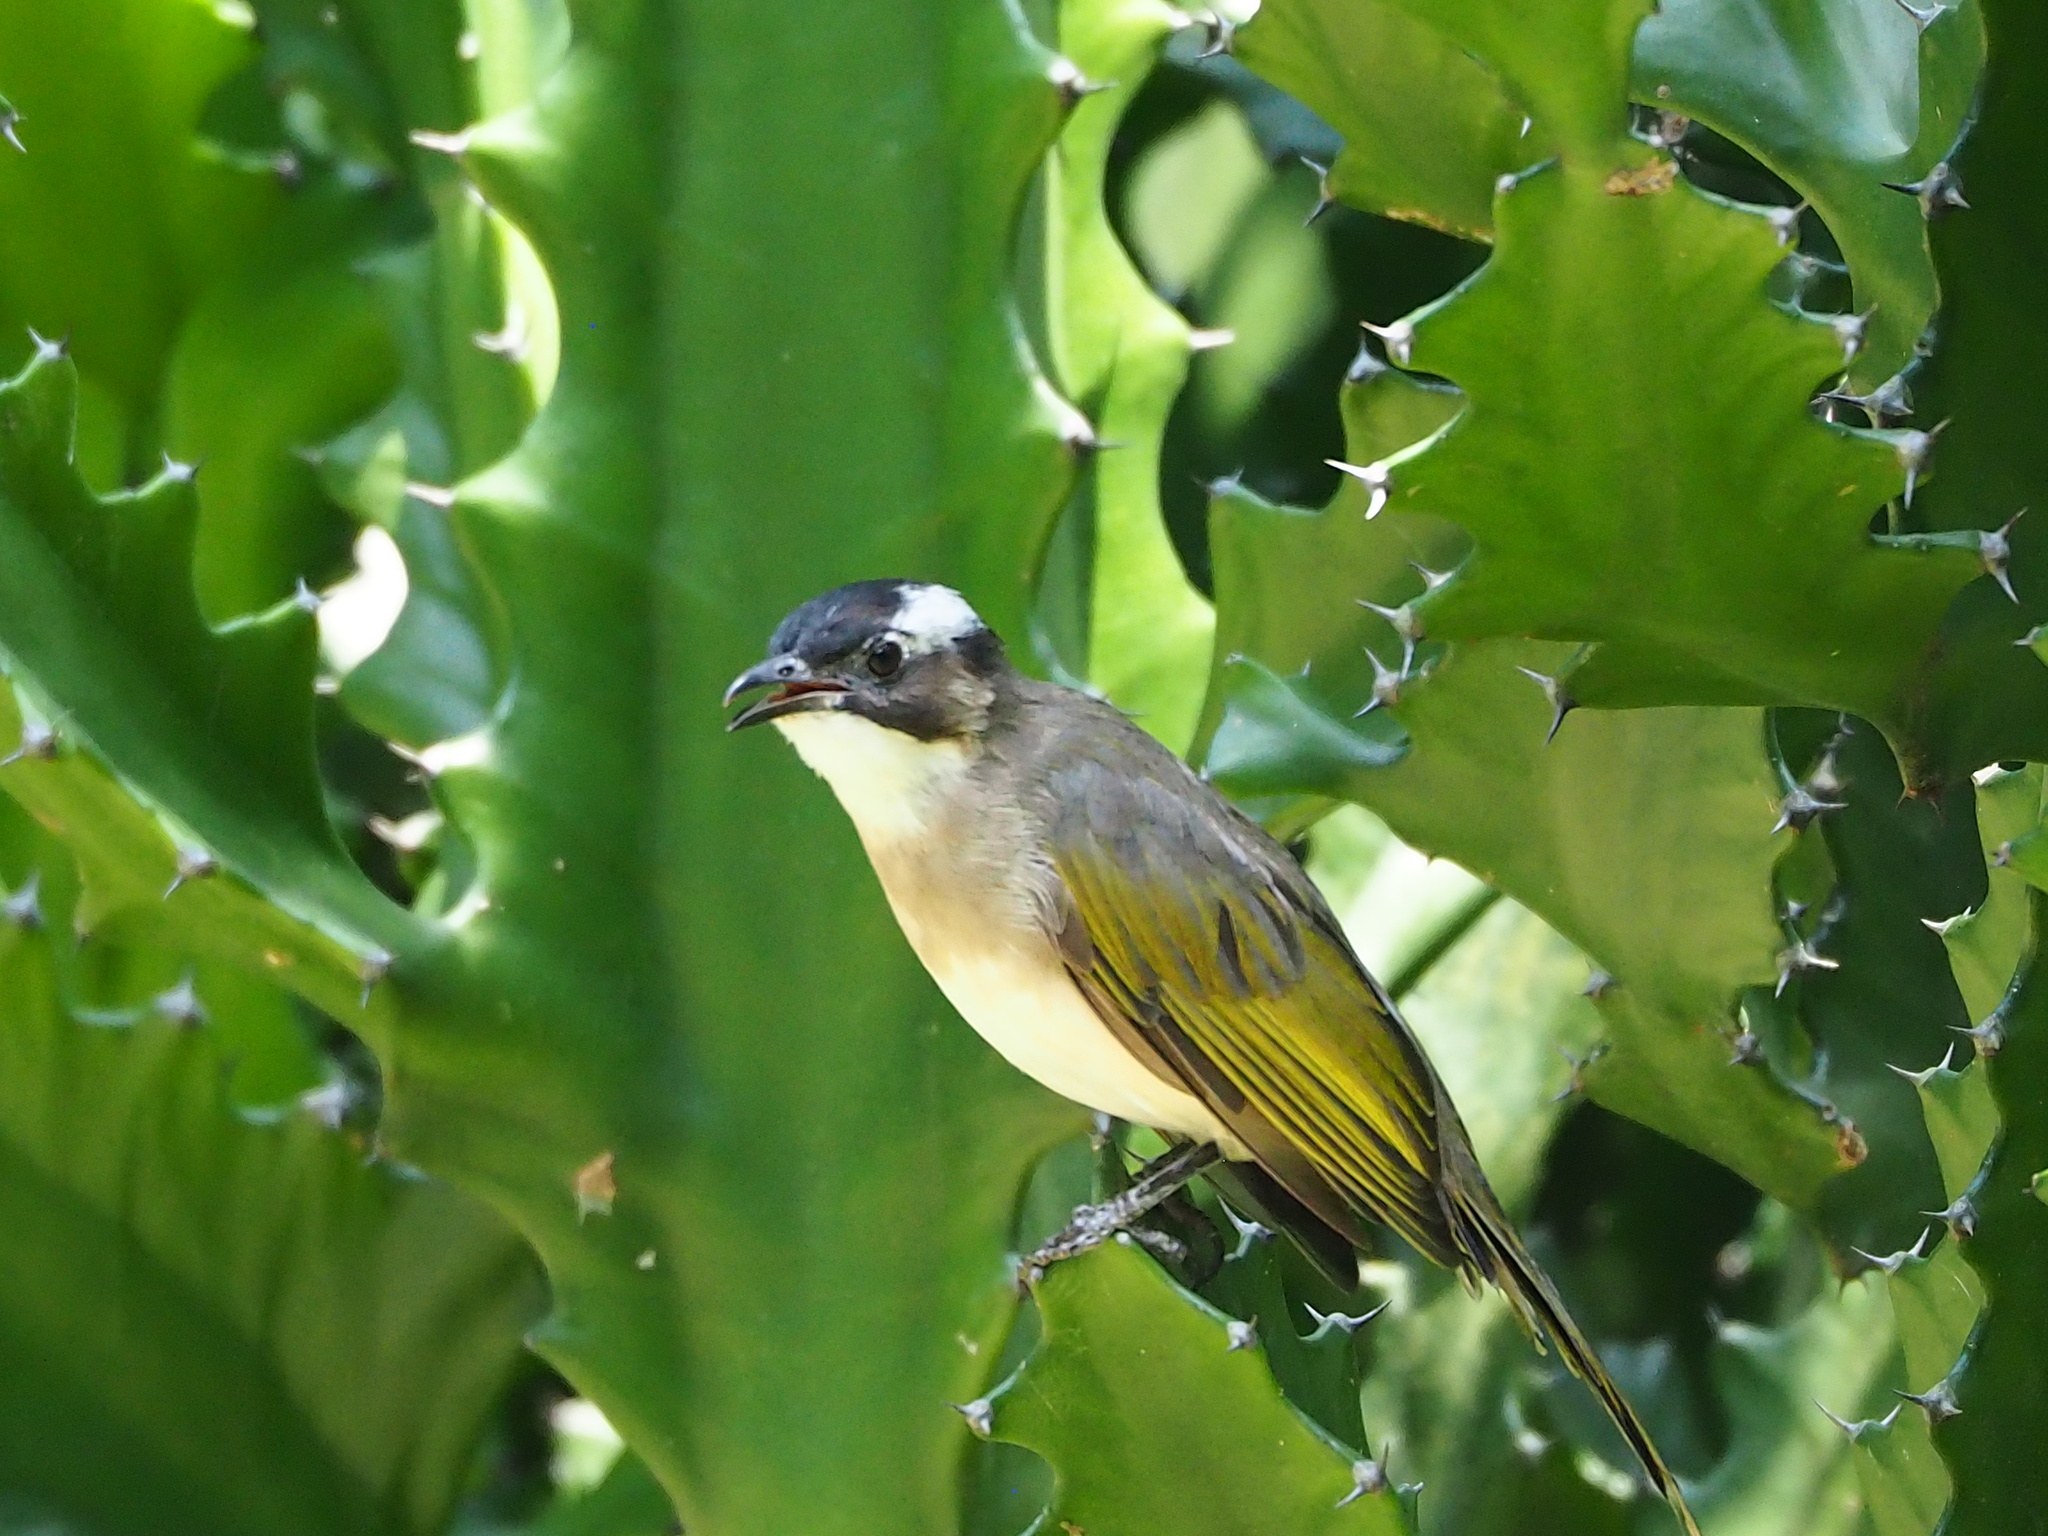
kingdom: Animalia
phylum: Chordata
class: Aves
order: Passeriformes
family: Pycnonotidae
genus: Pycnonotus
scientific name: Pycnonotus sinensis
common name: Light-vented bulbul
